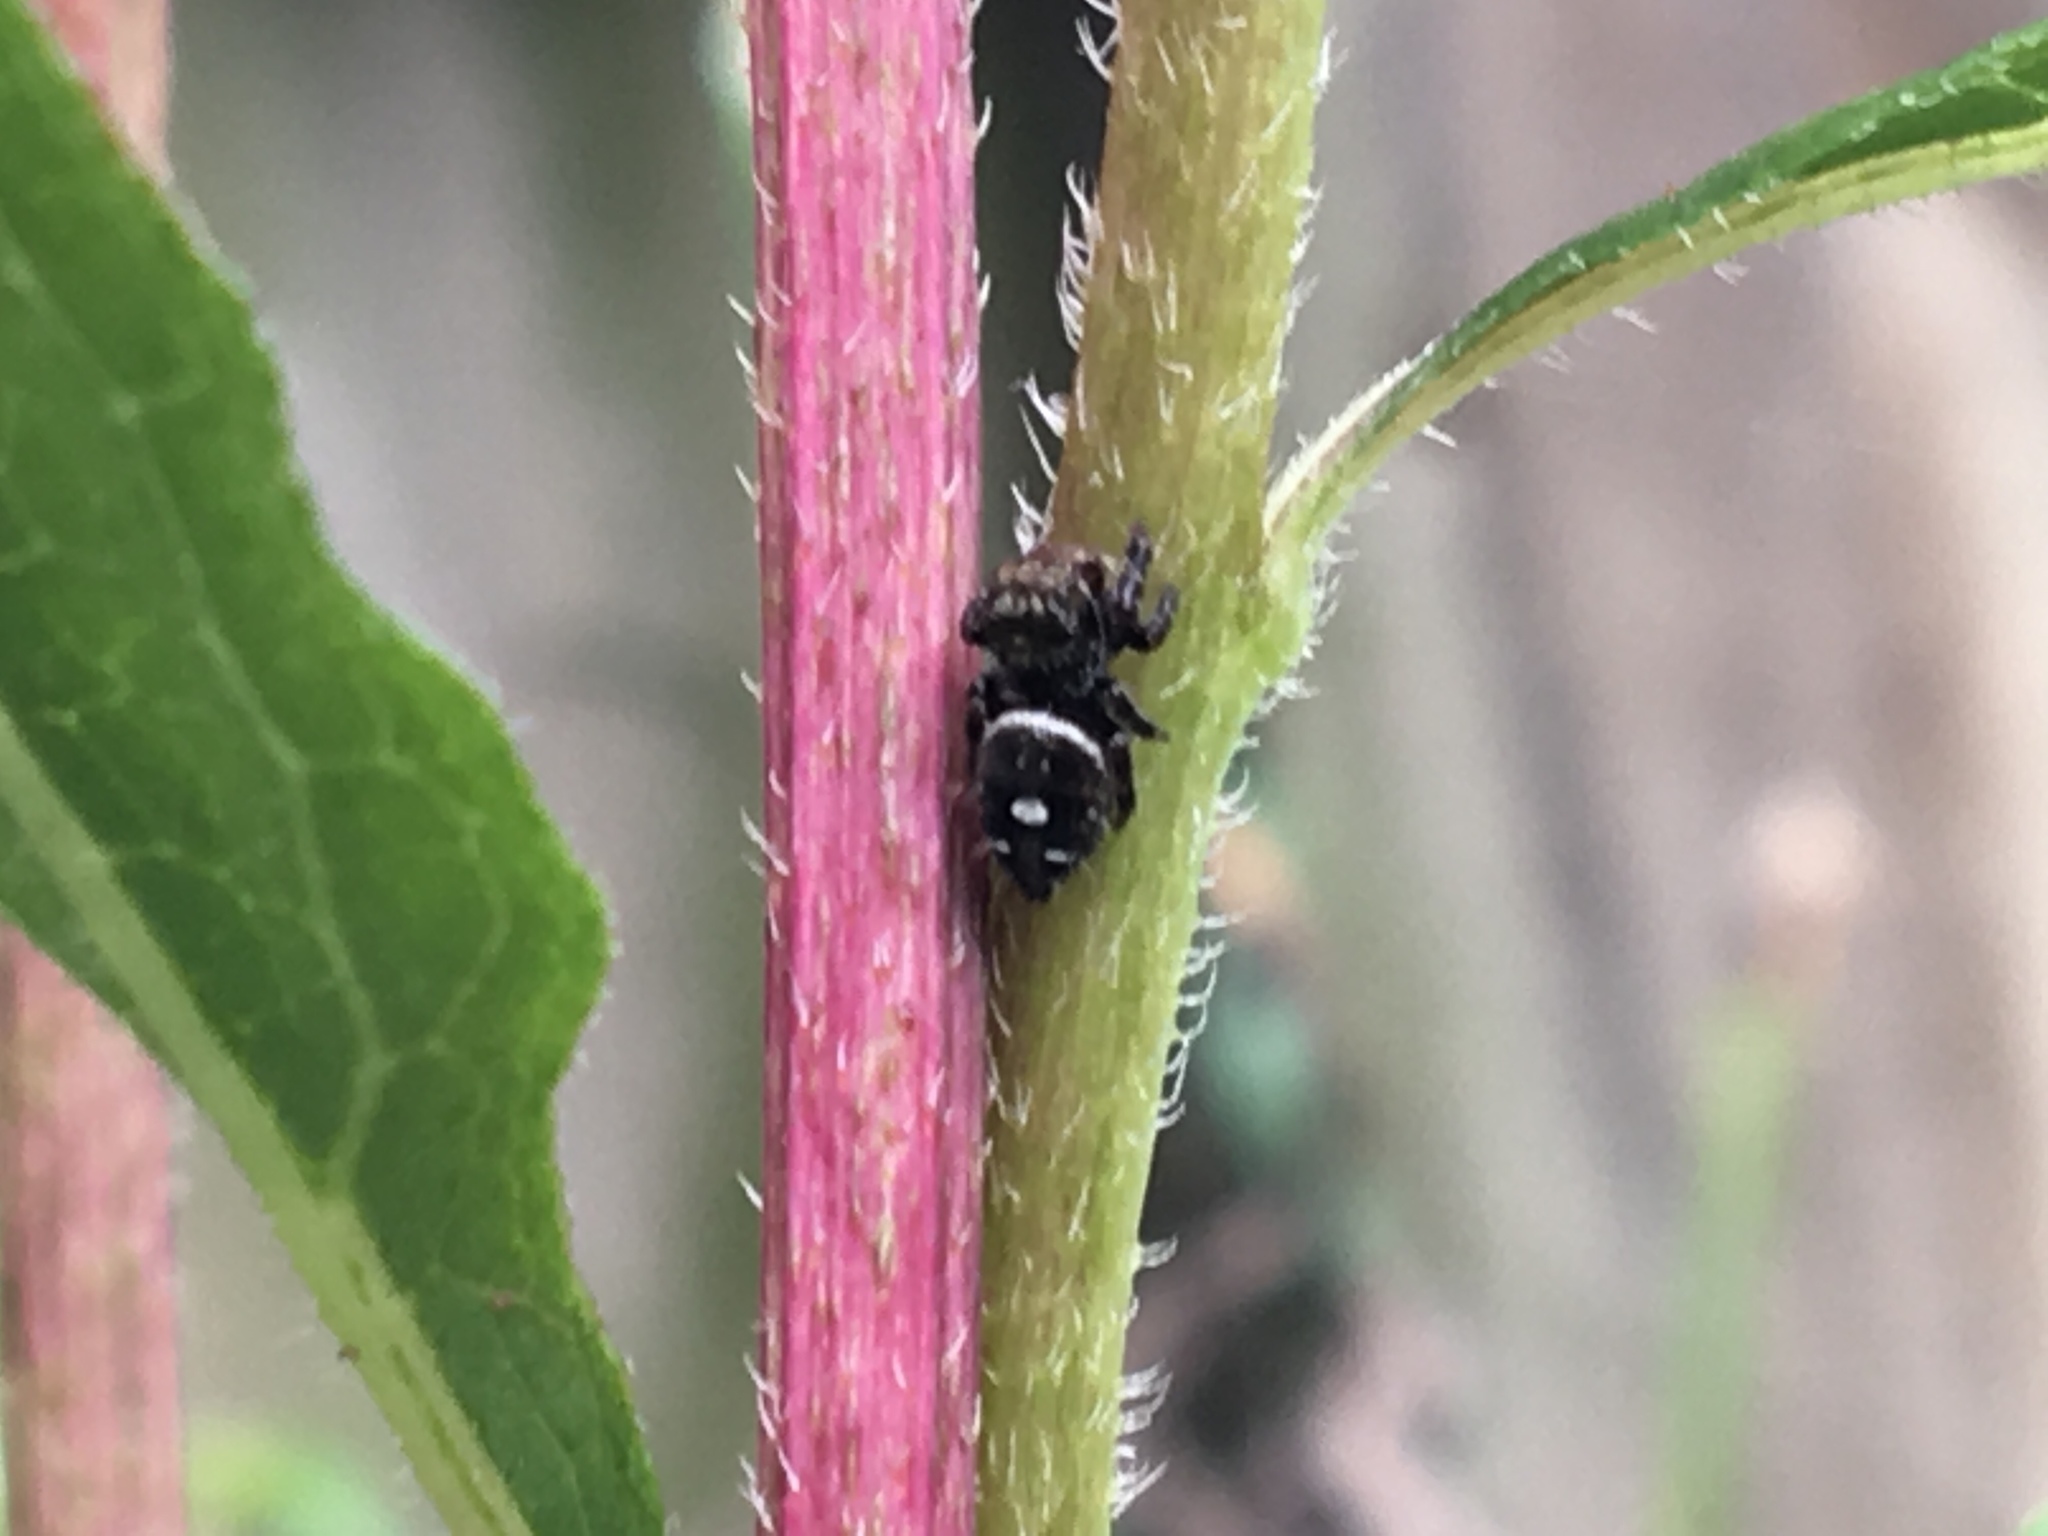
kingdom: Animalia
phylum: Arthropoda
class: Arachnida
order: Araneae
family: Salticidae
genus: Phidippus
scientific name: Phidippus audax
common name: Bold jumper
